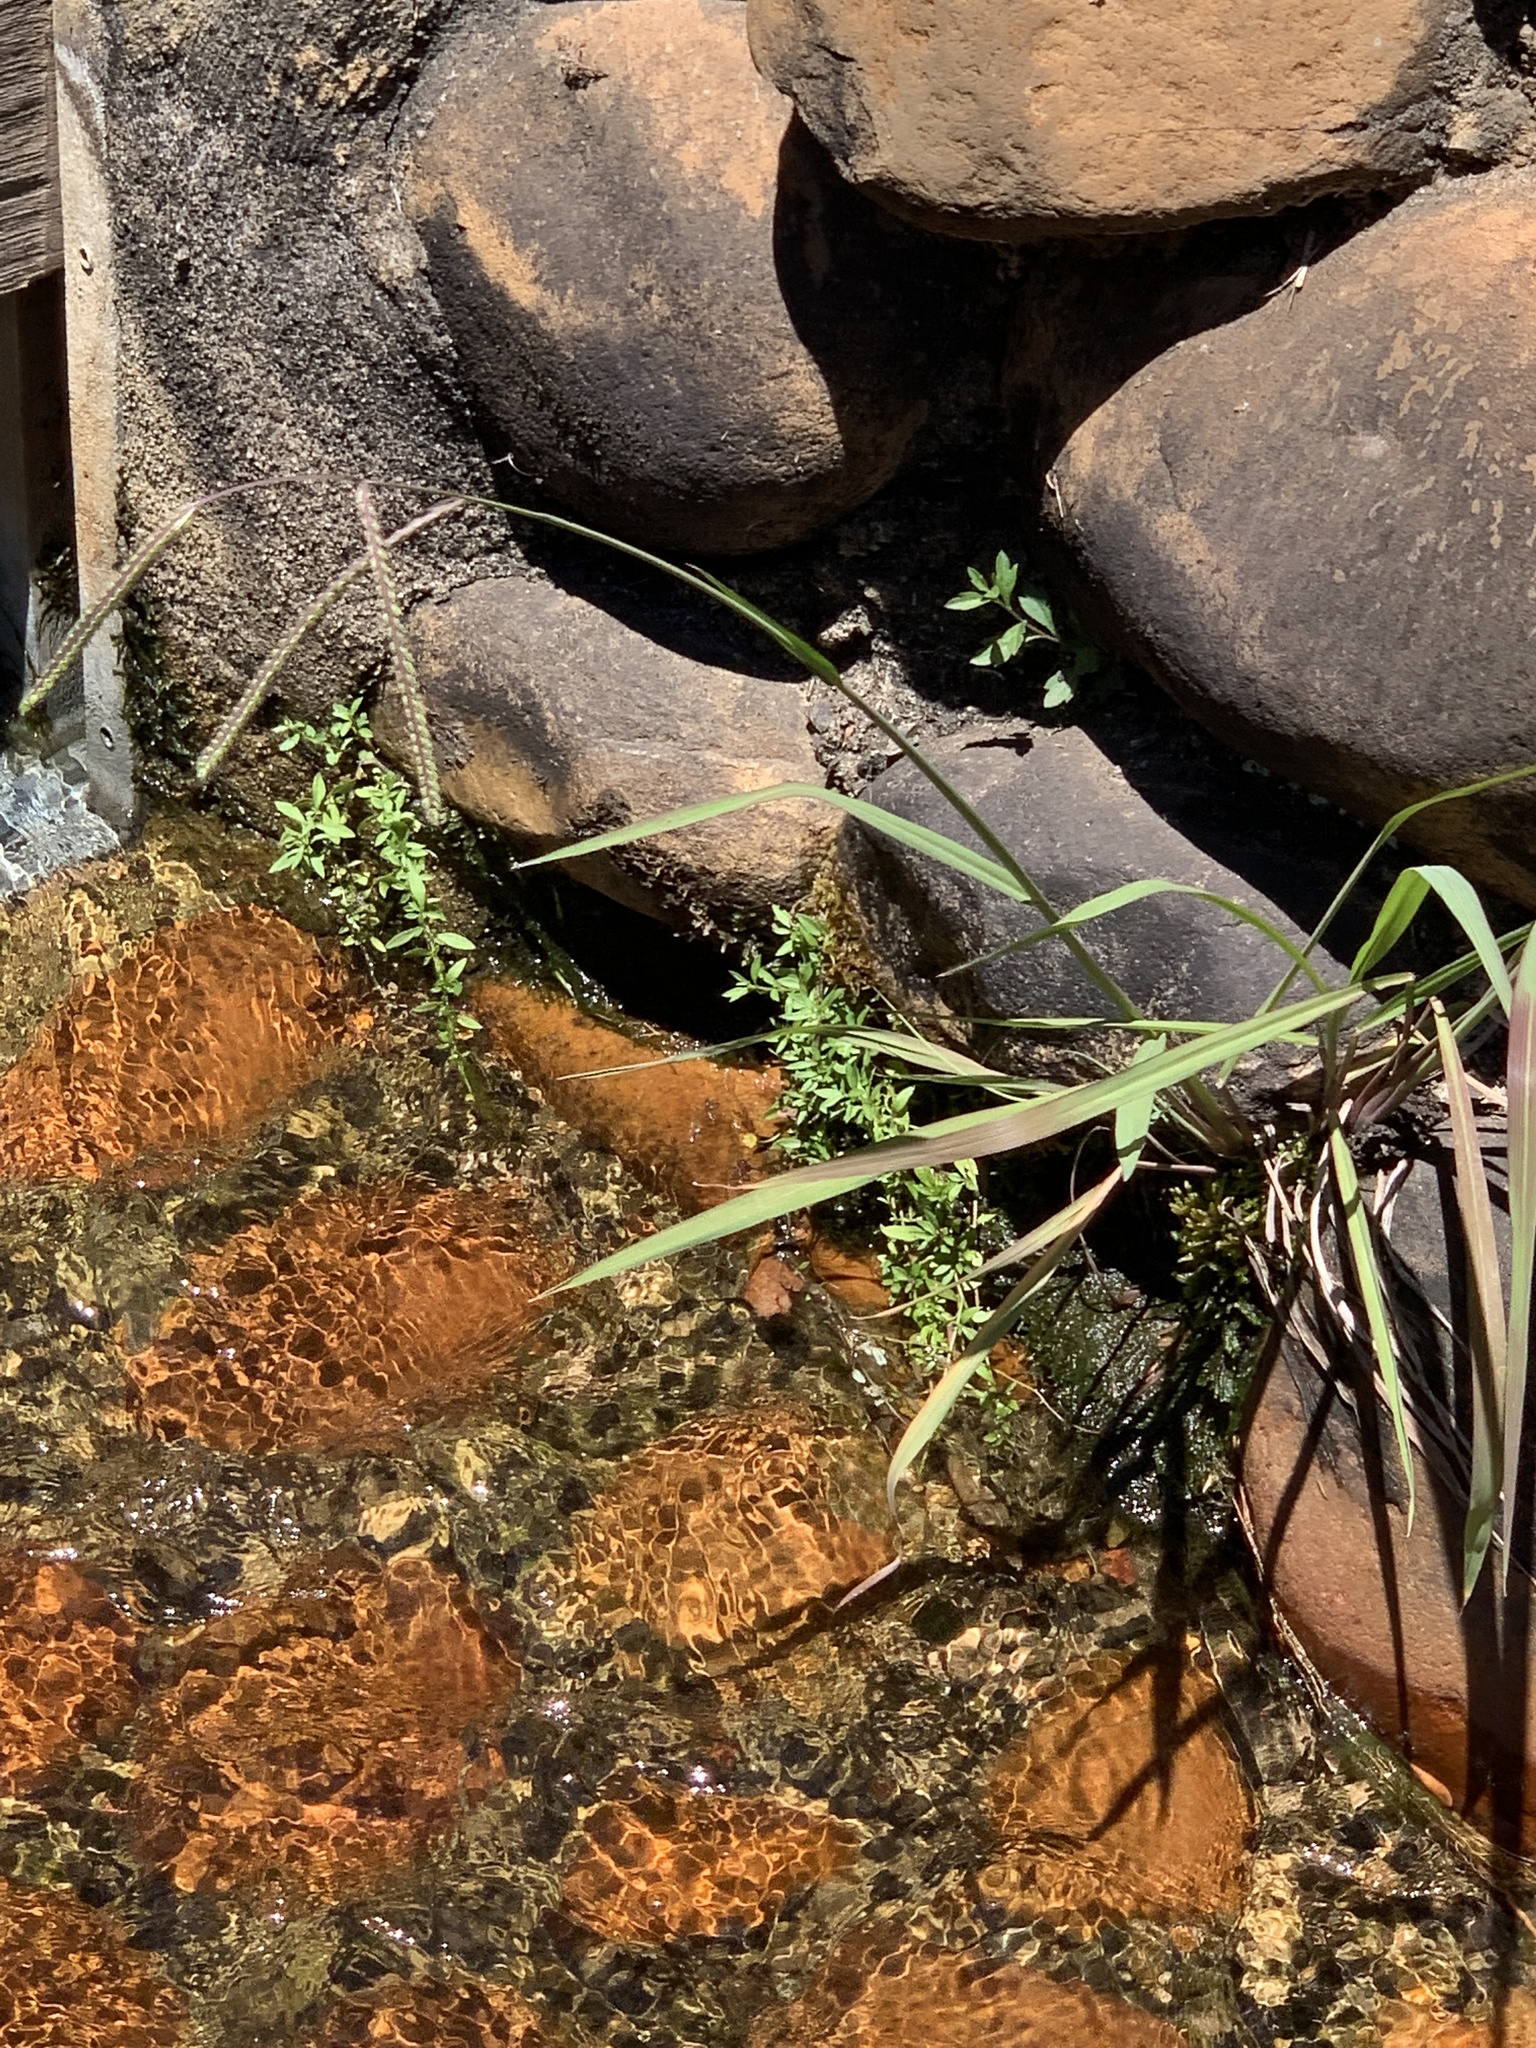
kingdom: Plantae
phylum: Tracheophyta
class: Liliopsida
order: Poales
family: Poaceae
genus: Paspalum
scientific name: Paspalum urvillei
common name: Vasey's grass
